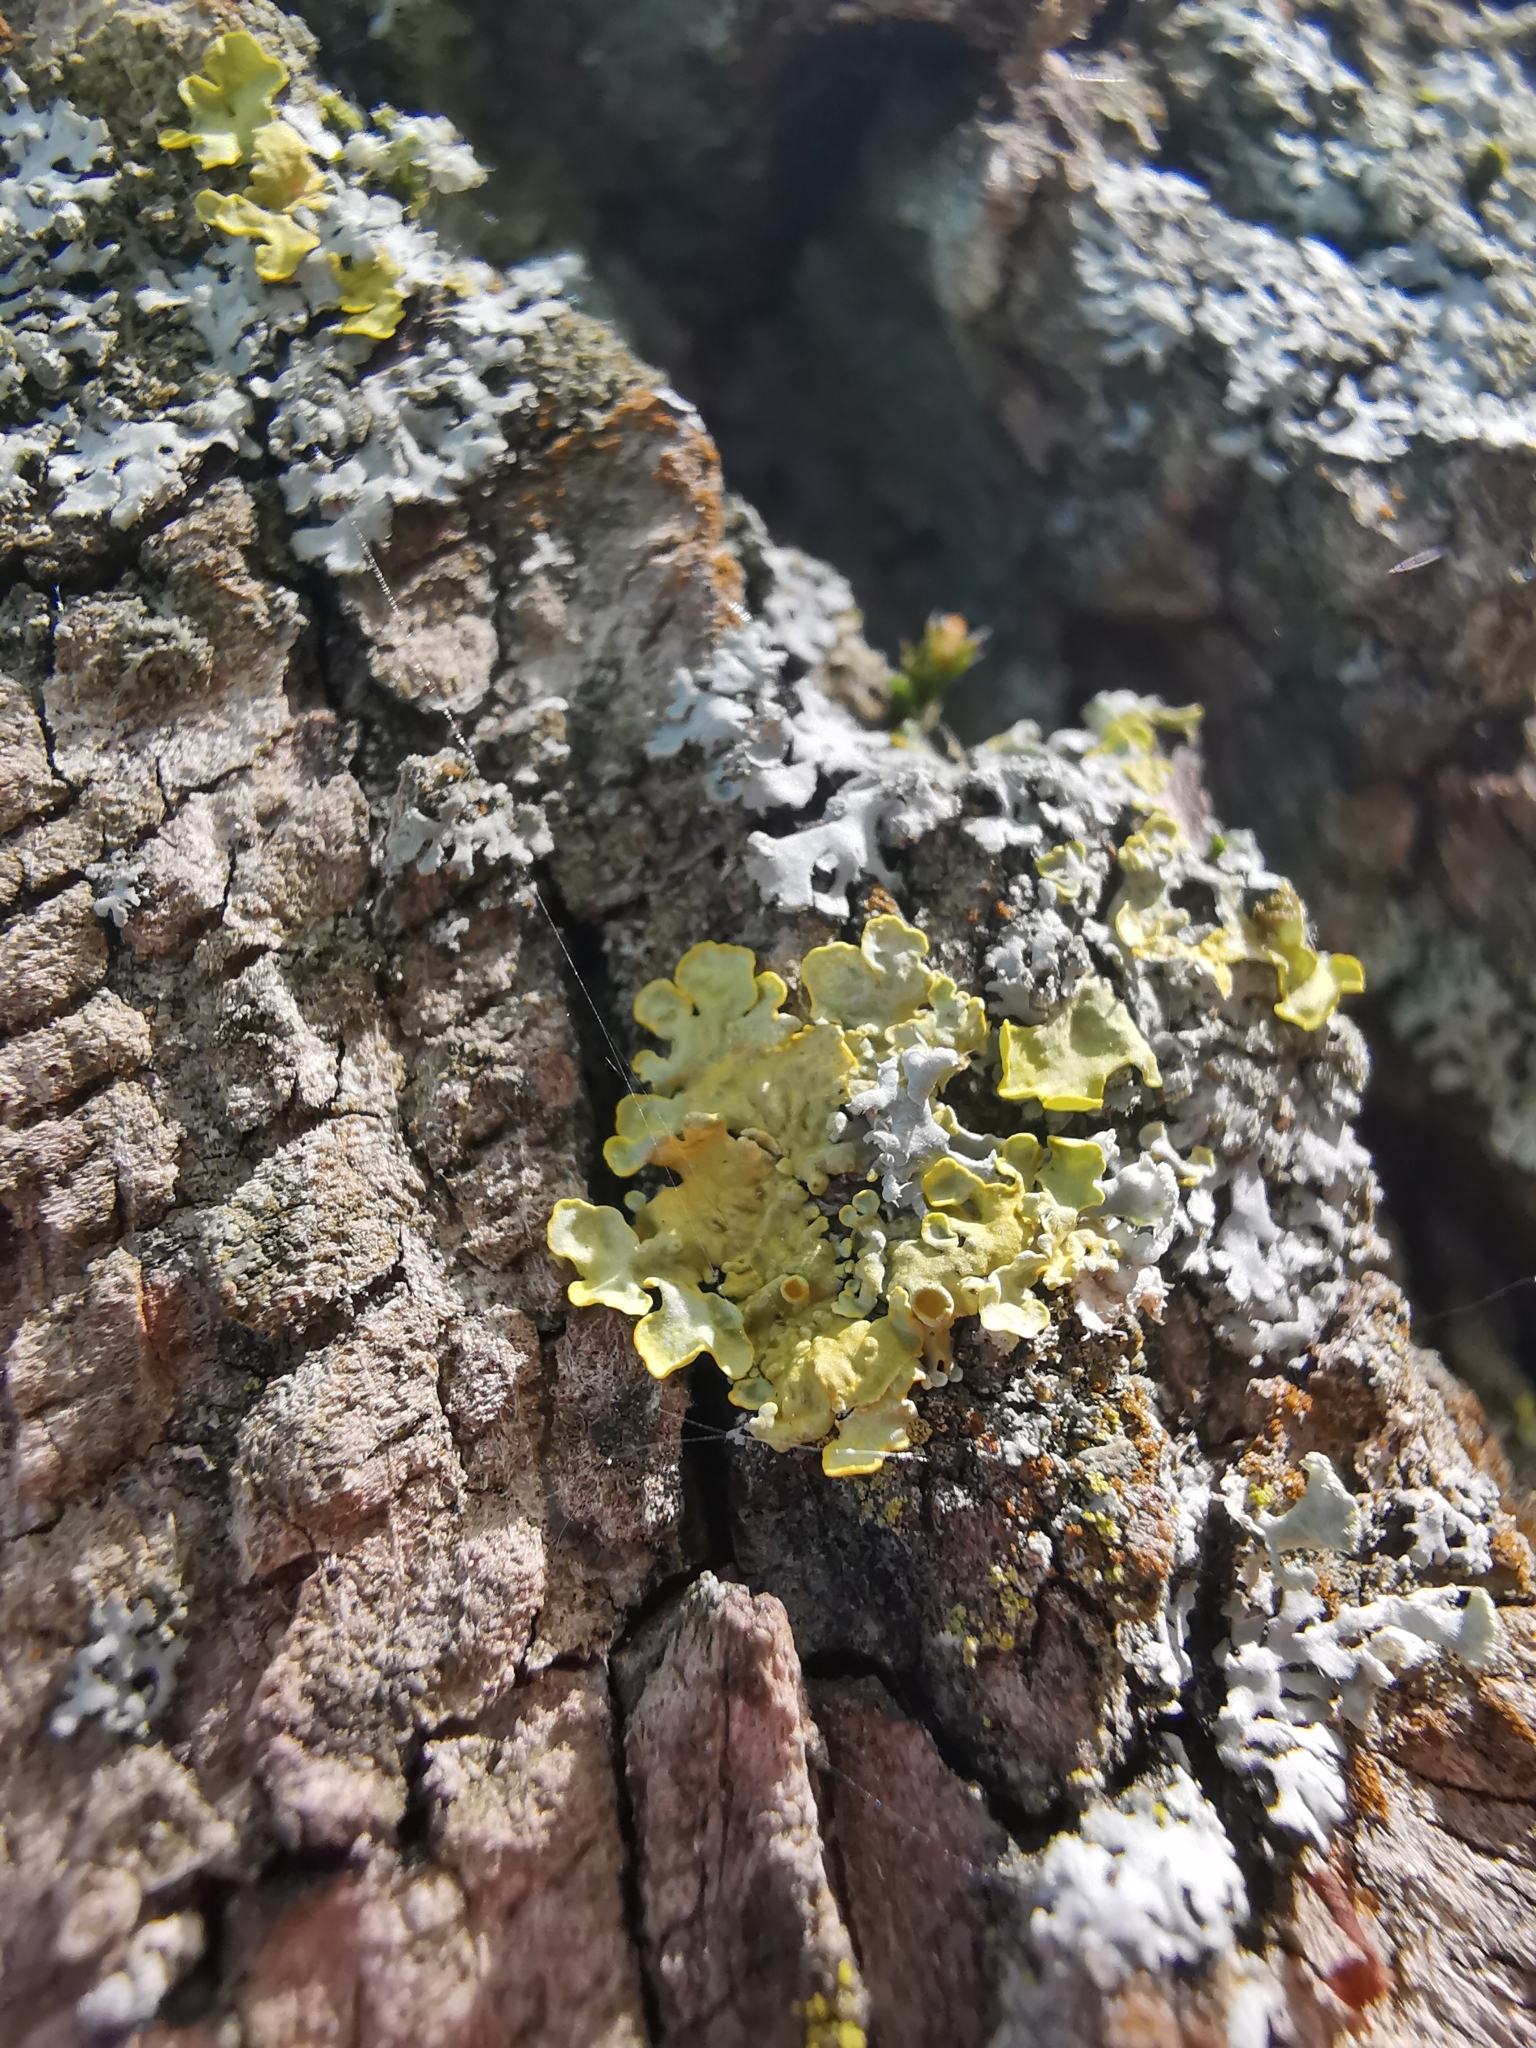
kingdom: Fungi
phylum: Ascomycota
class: Lecanoromycetes
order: Teloschistales
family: Teloschistaceae
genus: Xanthoria
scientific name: Xanthoria parietina
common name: Common orange lichen
